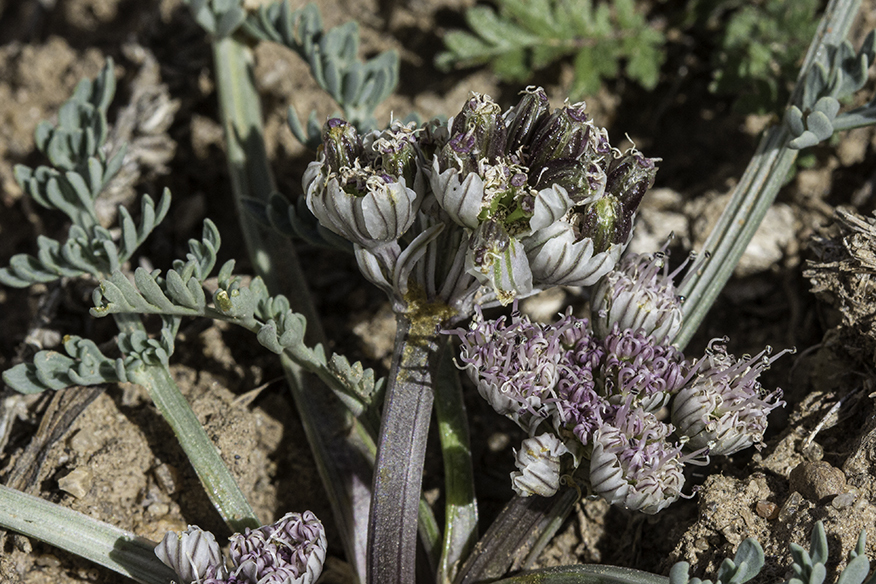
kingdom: Plantae
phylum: Tracheophyta
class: Magnoliopsida
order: Apiales
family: Apiaceae
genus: Vesper
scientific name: Vesper constancei
